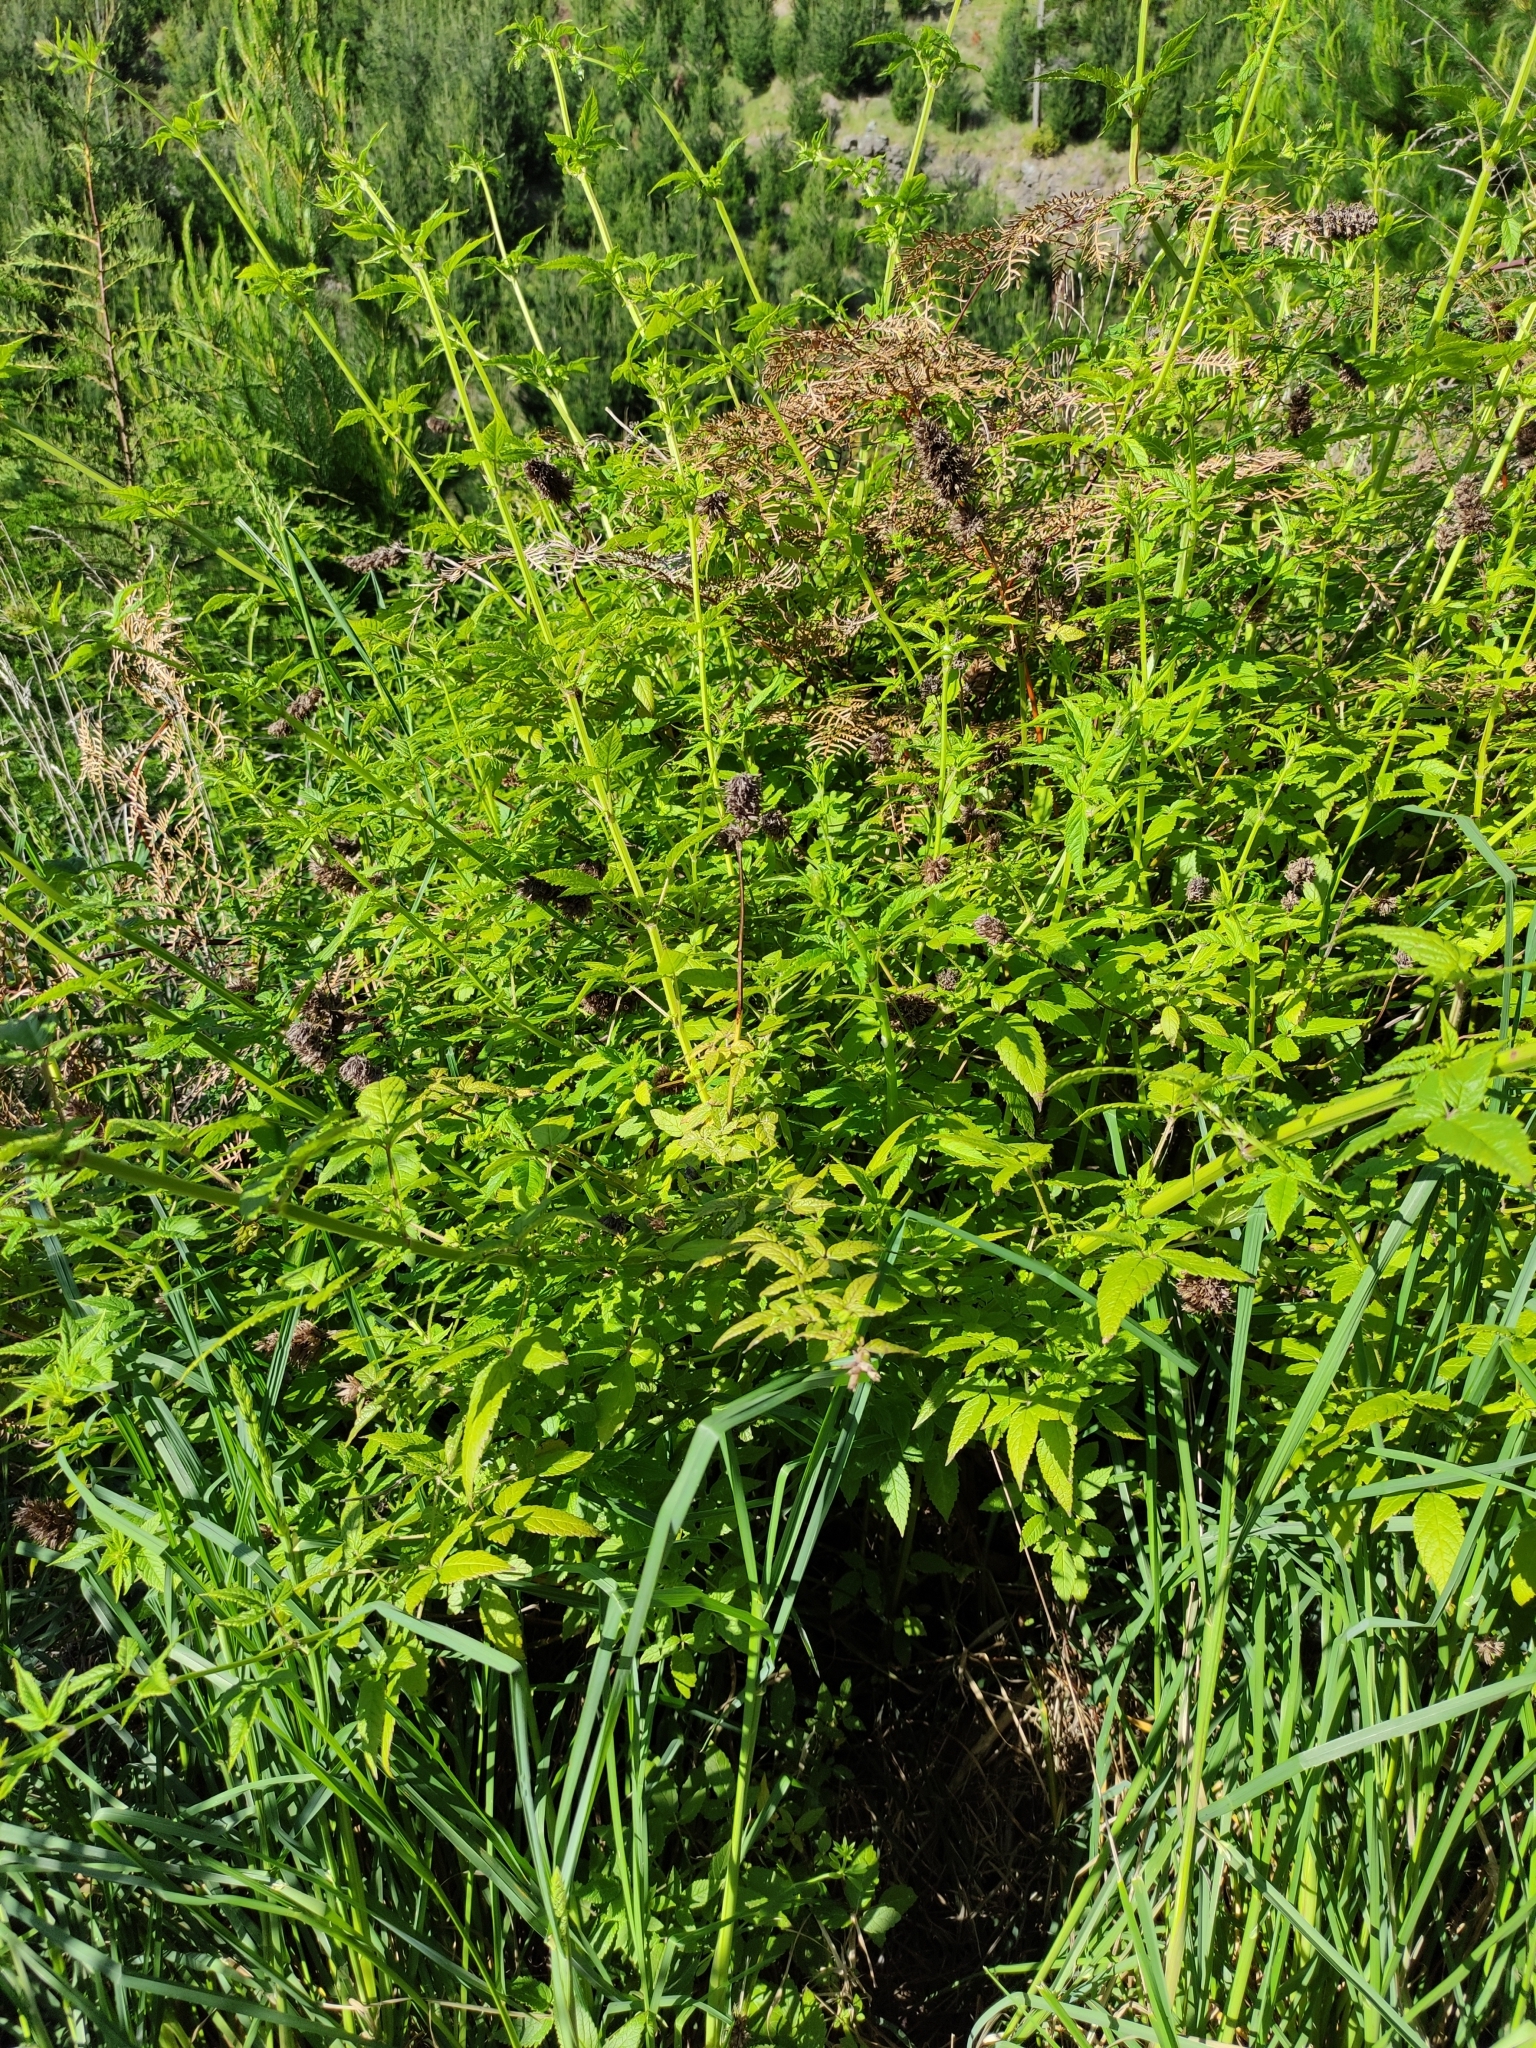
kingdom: Plantae
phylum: Tracheophyta
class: Magnoliopsida
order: Lamiales
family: Lamiaceae
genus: Cedronella
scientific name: Cedronella canariensis
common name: Canary islands balm
